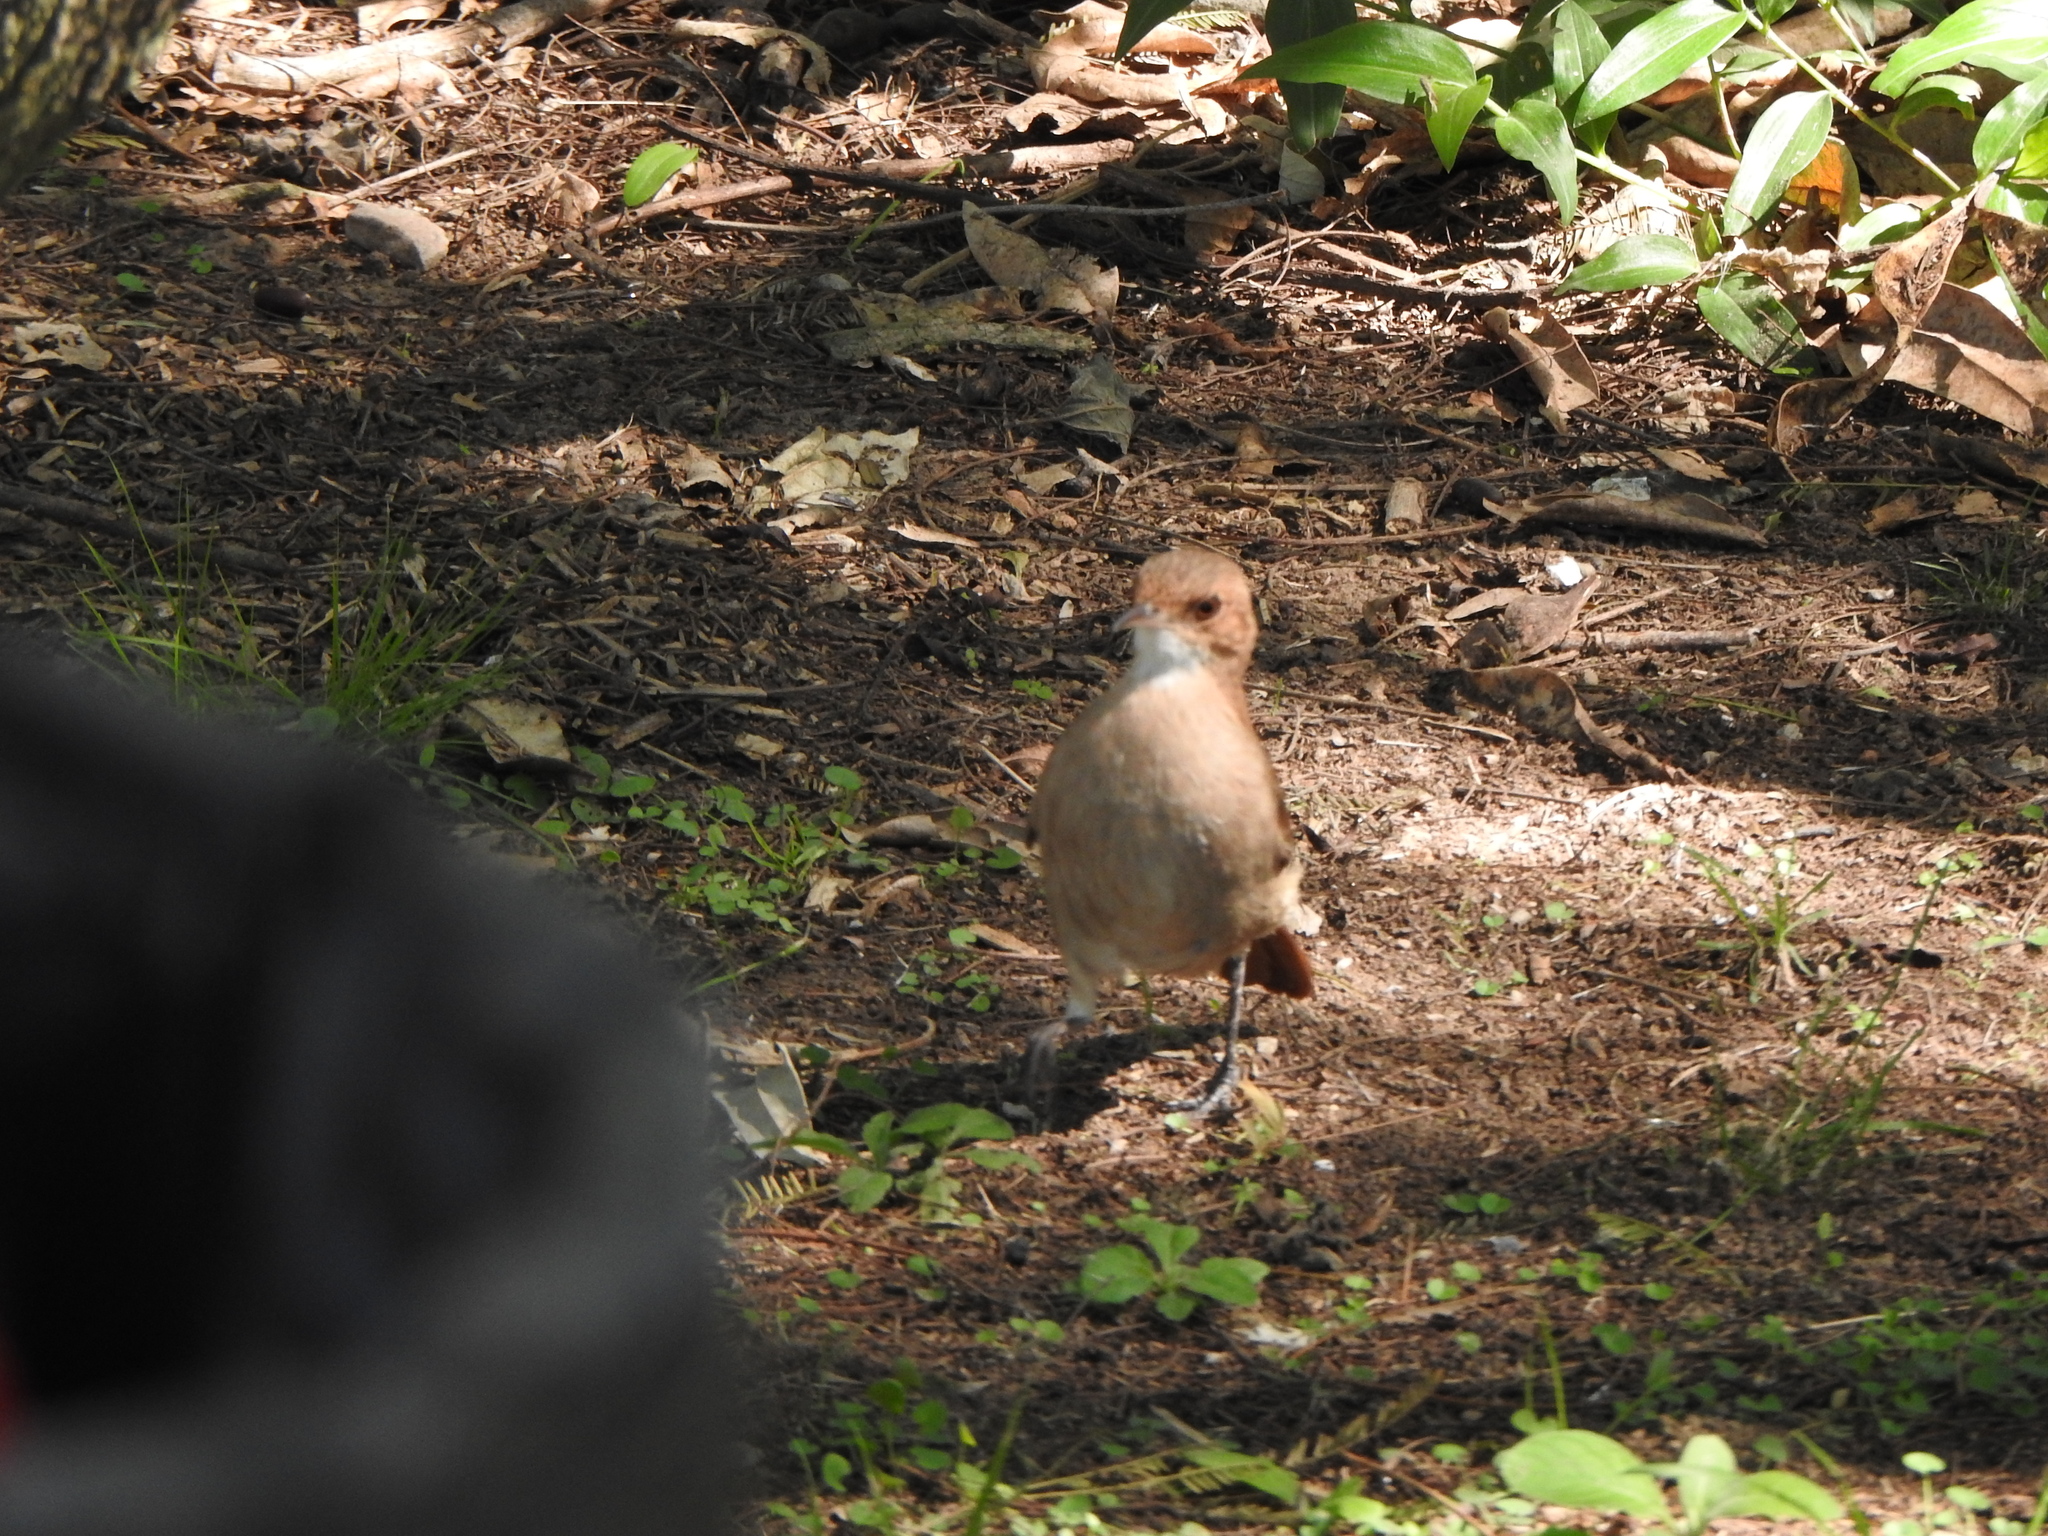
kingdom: Animalia
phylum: Chordata
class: Aves
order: Passeriformes
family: Furnariidae
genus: Furnarius
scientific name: Furnarius rufus
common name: Rufous hornero
